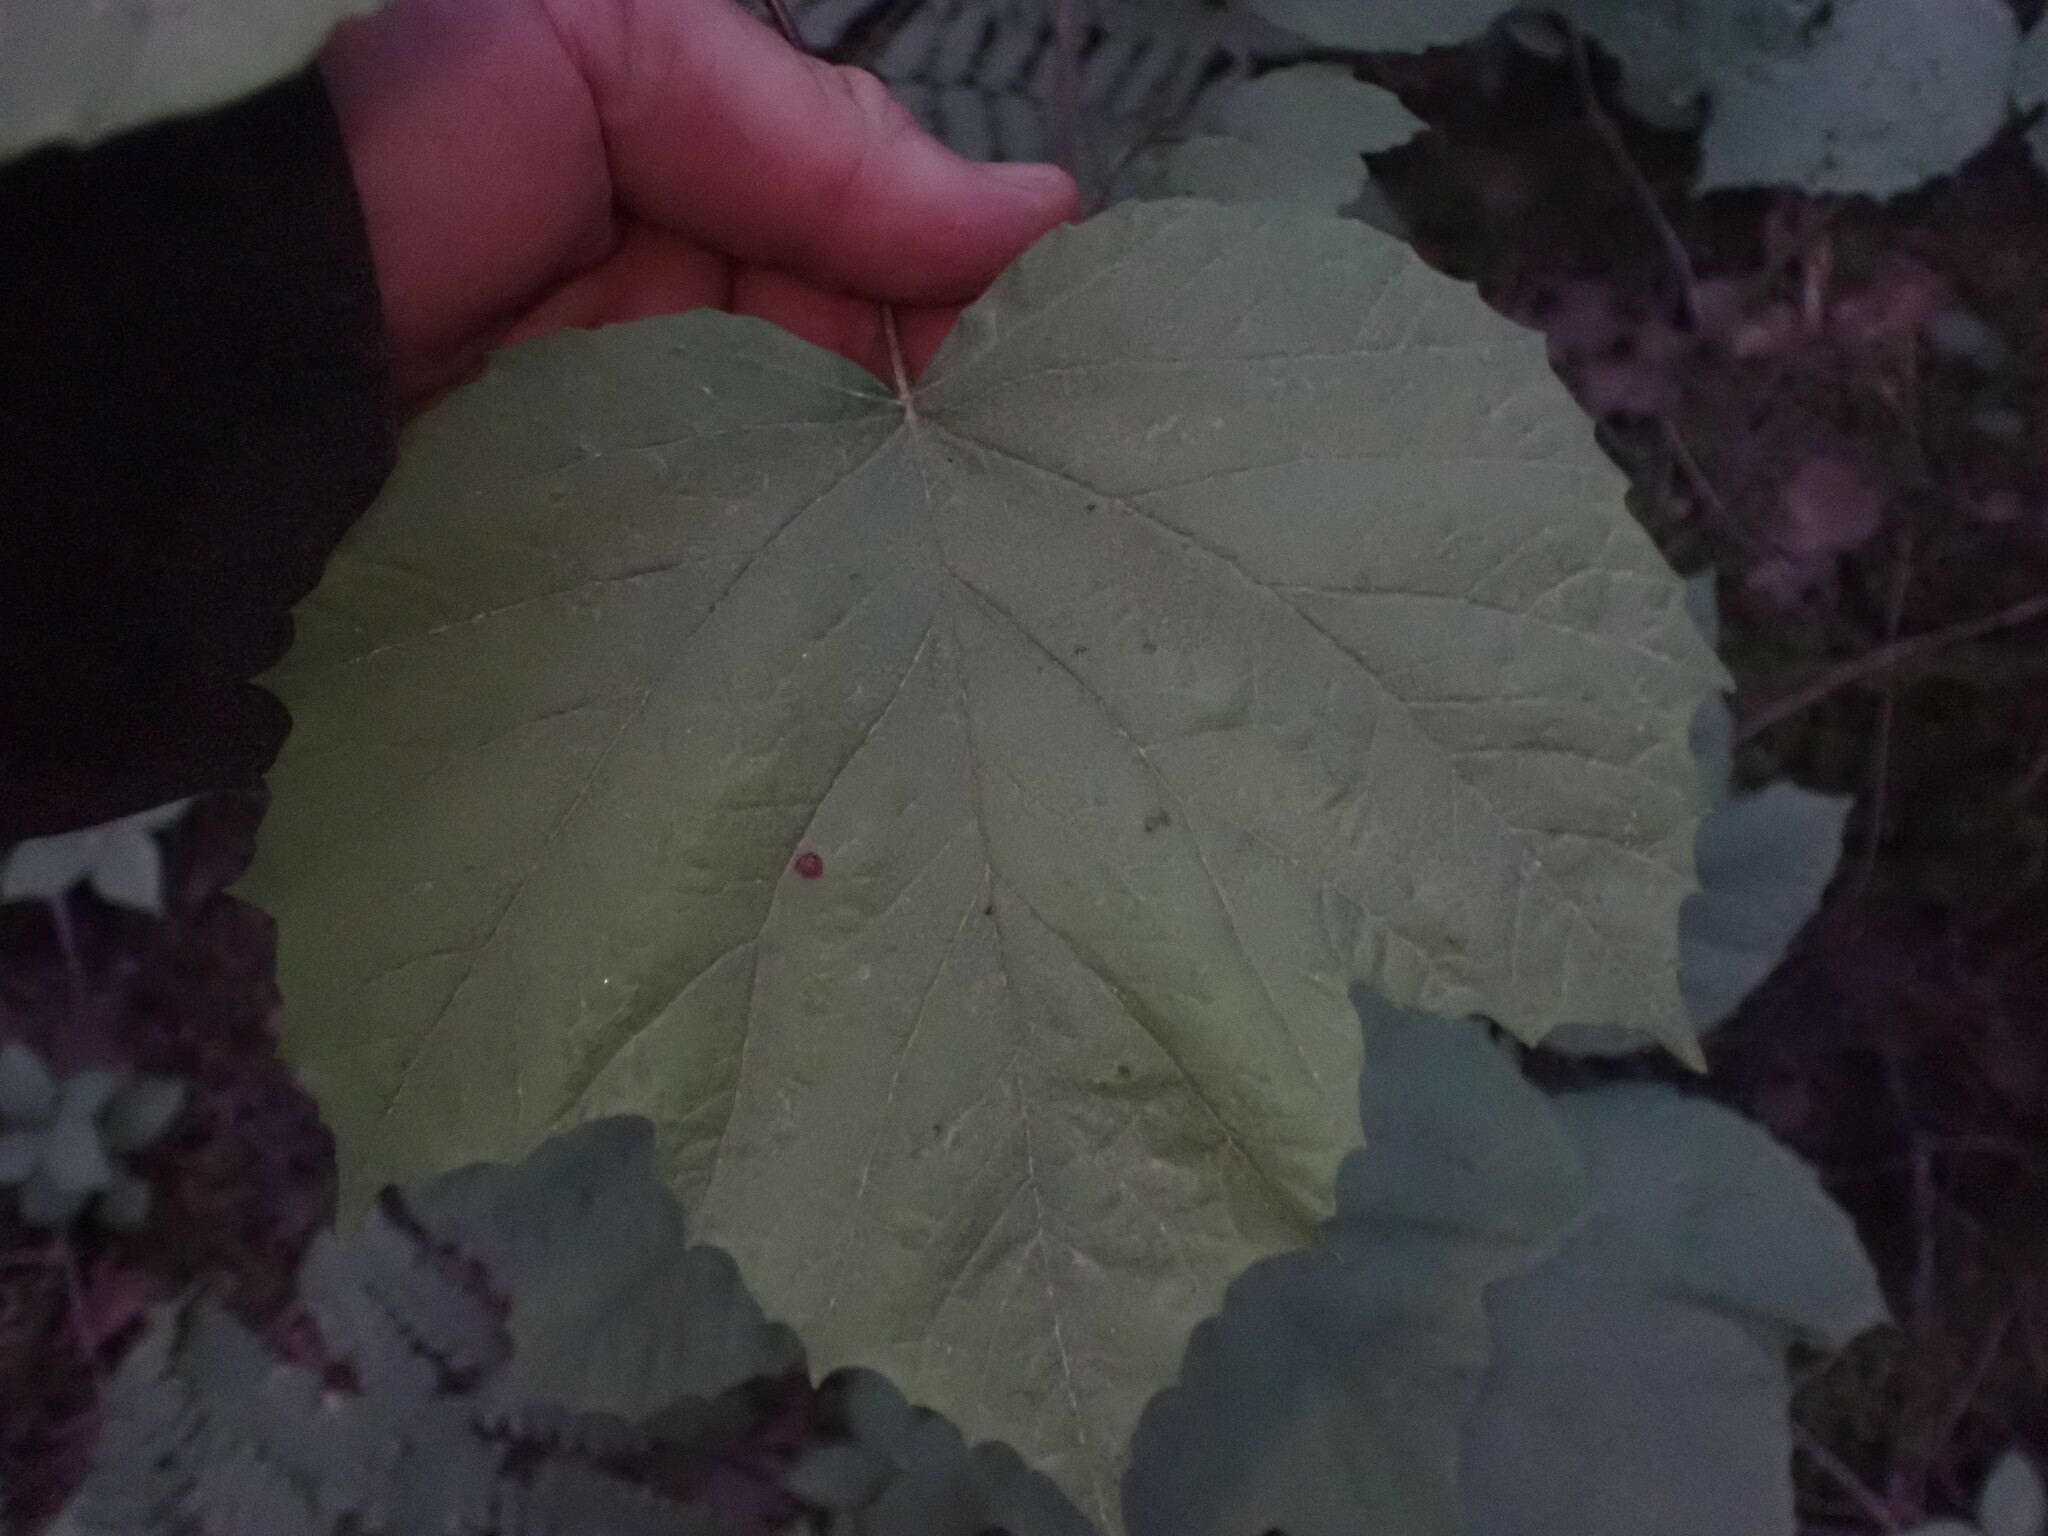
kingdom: Plantae
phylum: Tracheophyta
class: Magnoliopsida
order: Dipsacales
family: Viburnaceae
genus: Viburnum
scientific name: Viburnum edule
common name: Mooseberry
